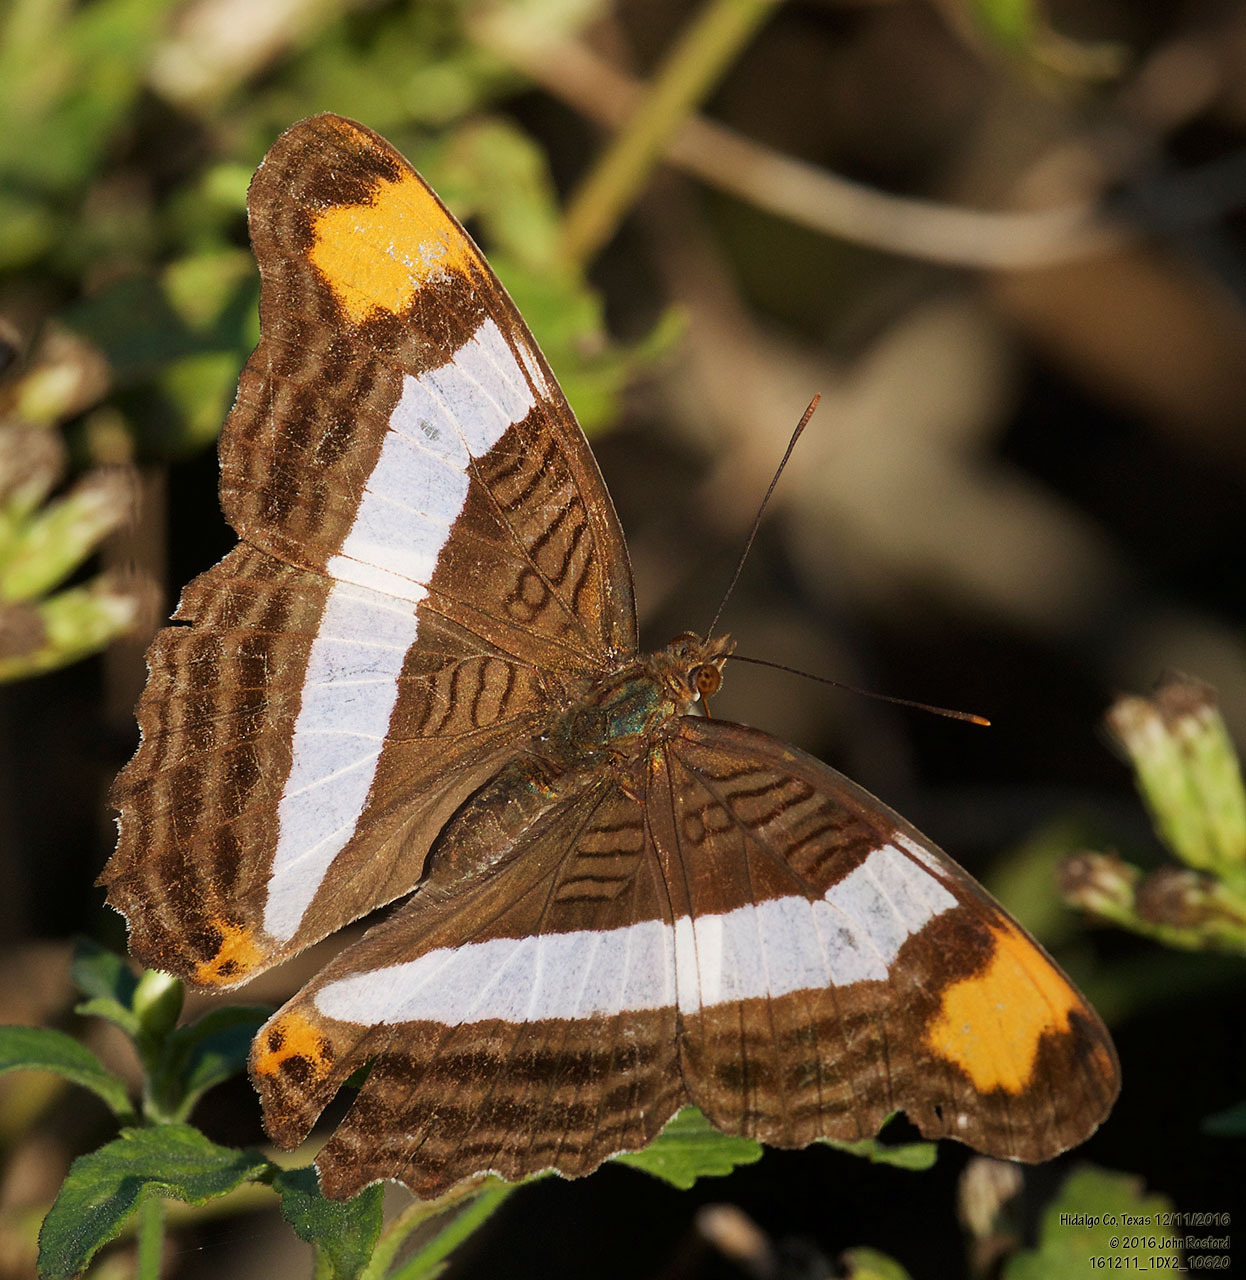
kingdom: Animalia
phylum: Arthropoda
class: Insecta
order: Lepidoptera
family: Nymphalidae
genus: Limenitis
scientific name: Limenitis fessonia
